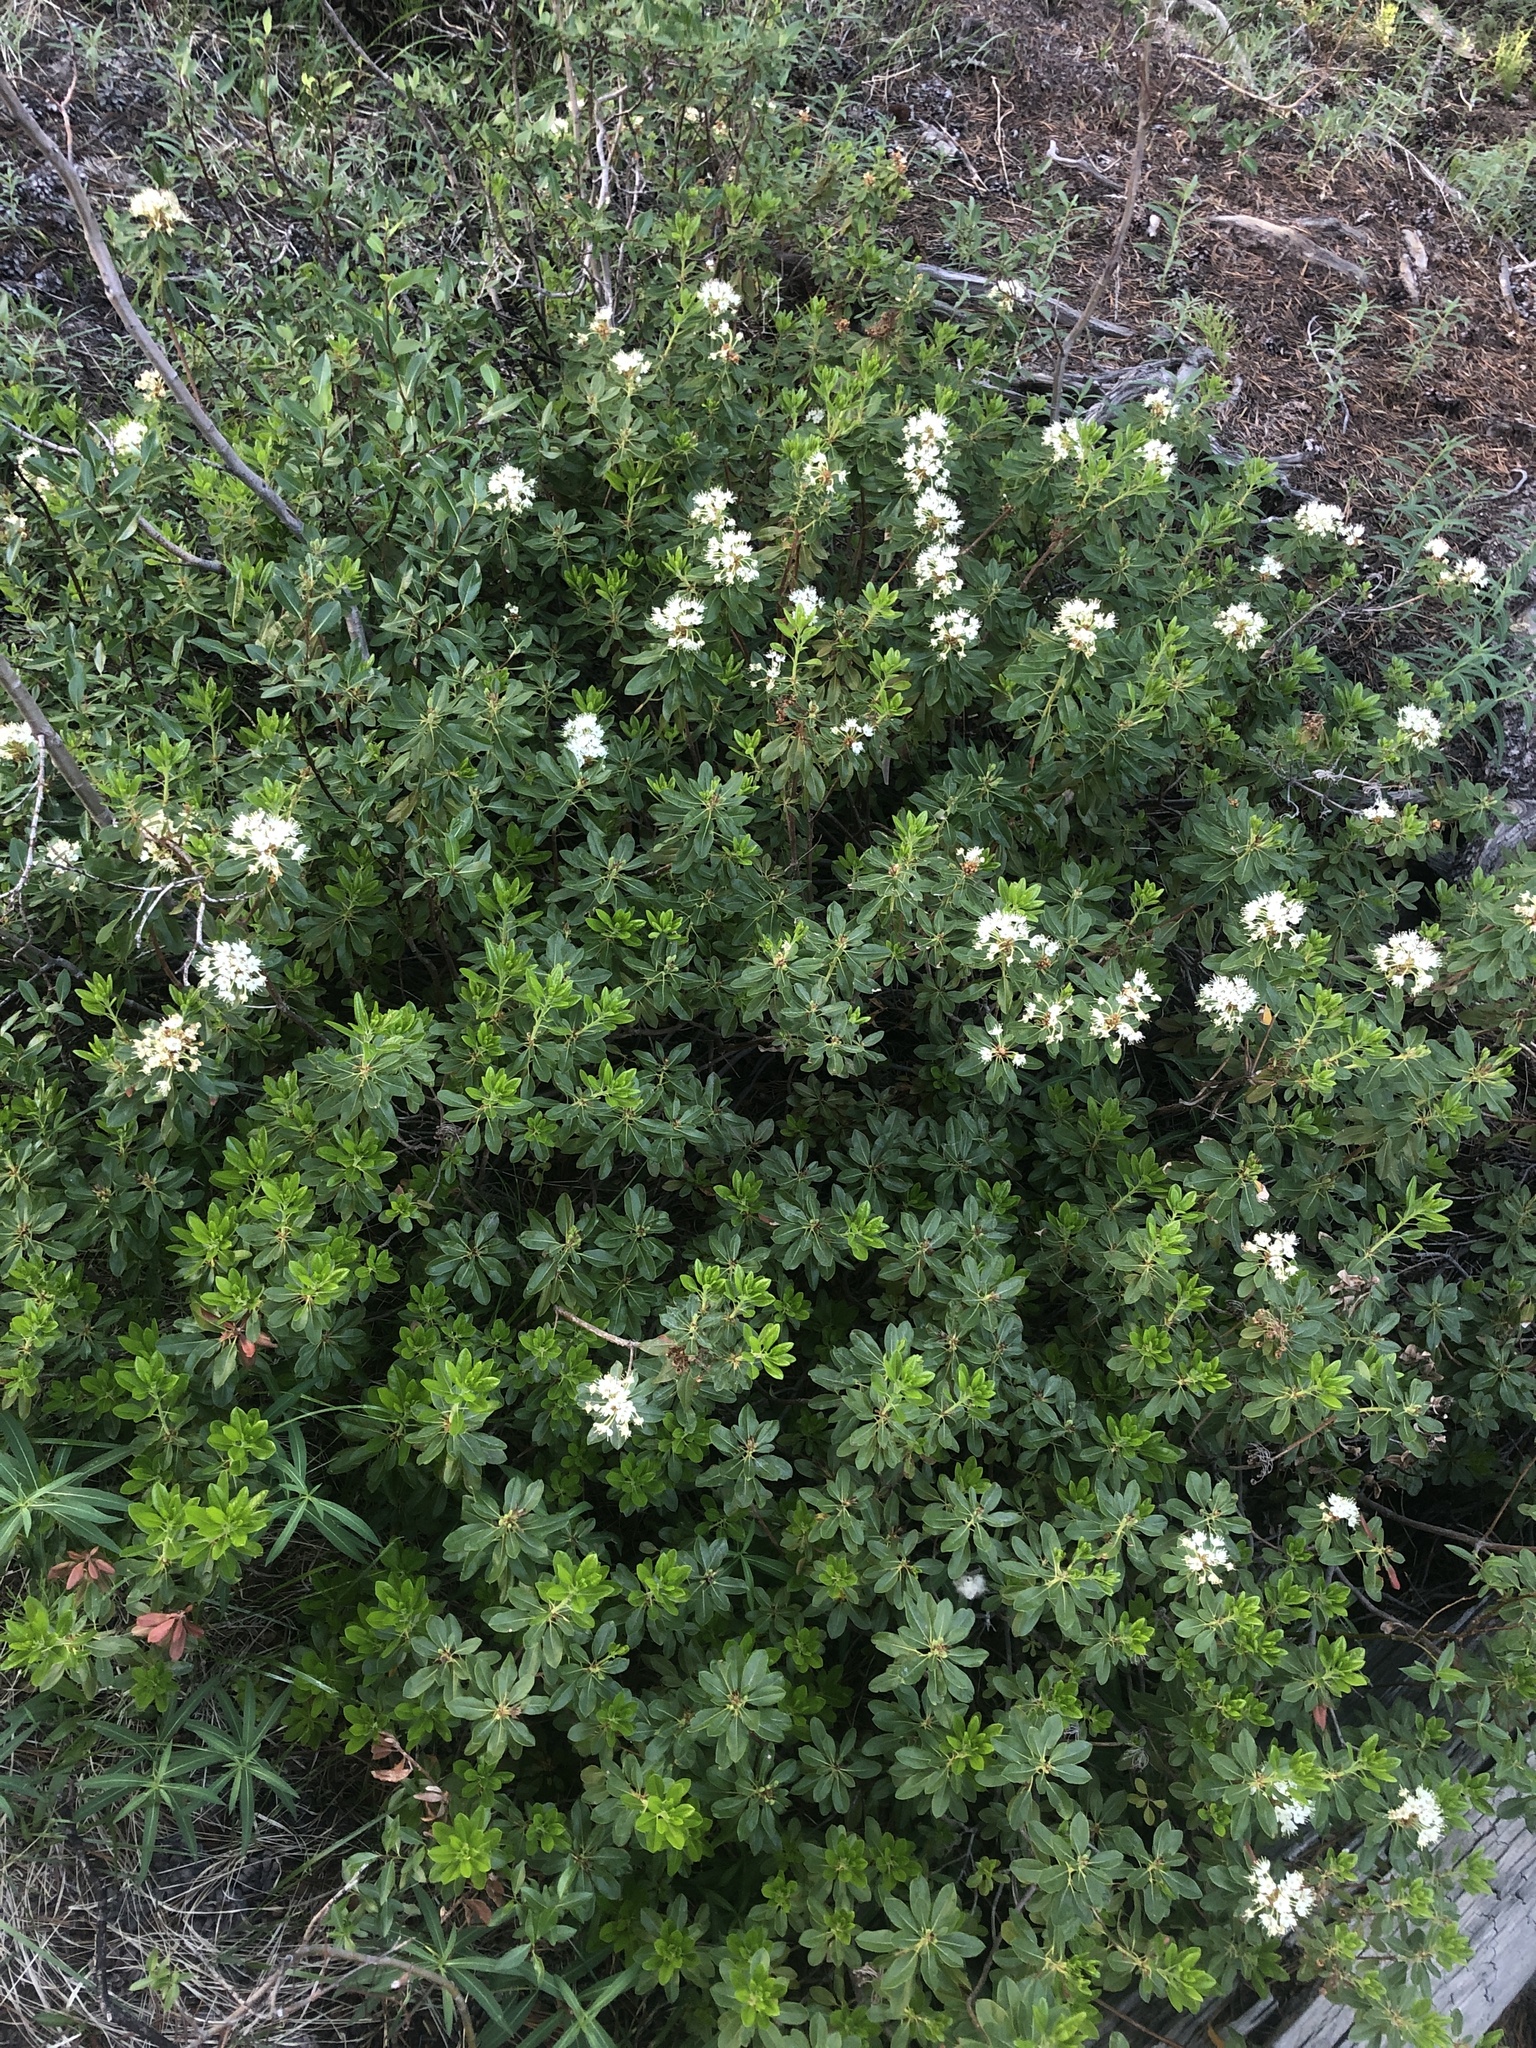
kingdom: Plantae
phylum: Tracheophyta
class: Magnoliopsida
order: Ericales
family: Ericaceae
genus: Rhododendron
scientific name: Rhododendron columbianum
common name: Western labrador tea
